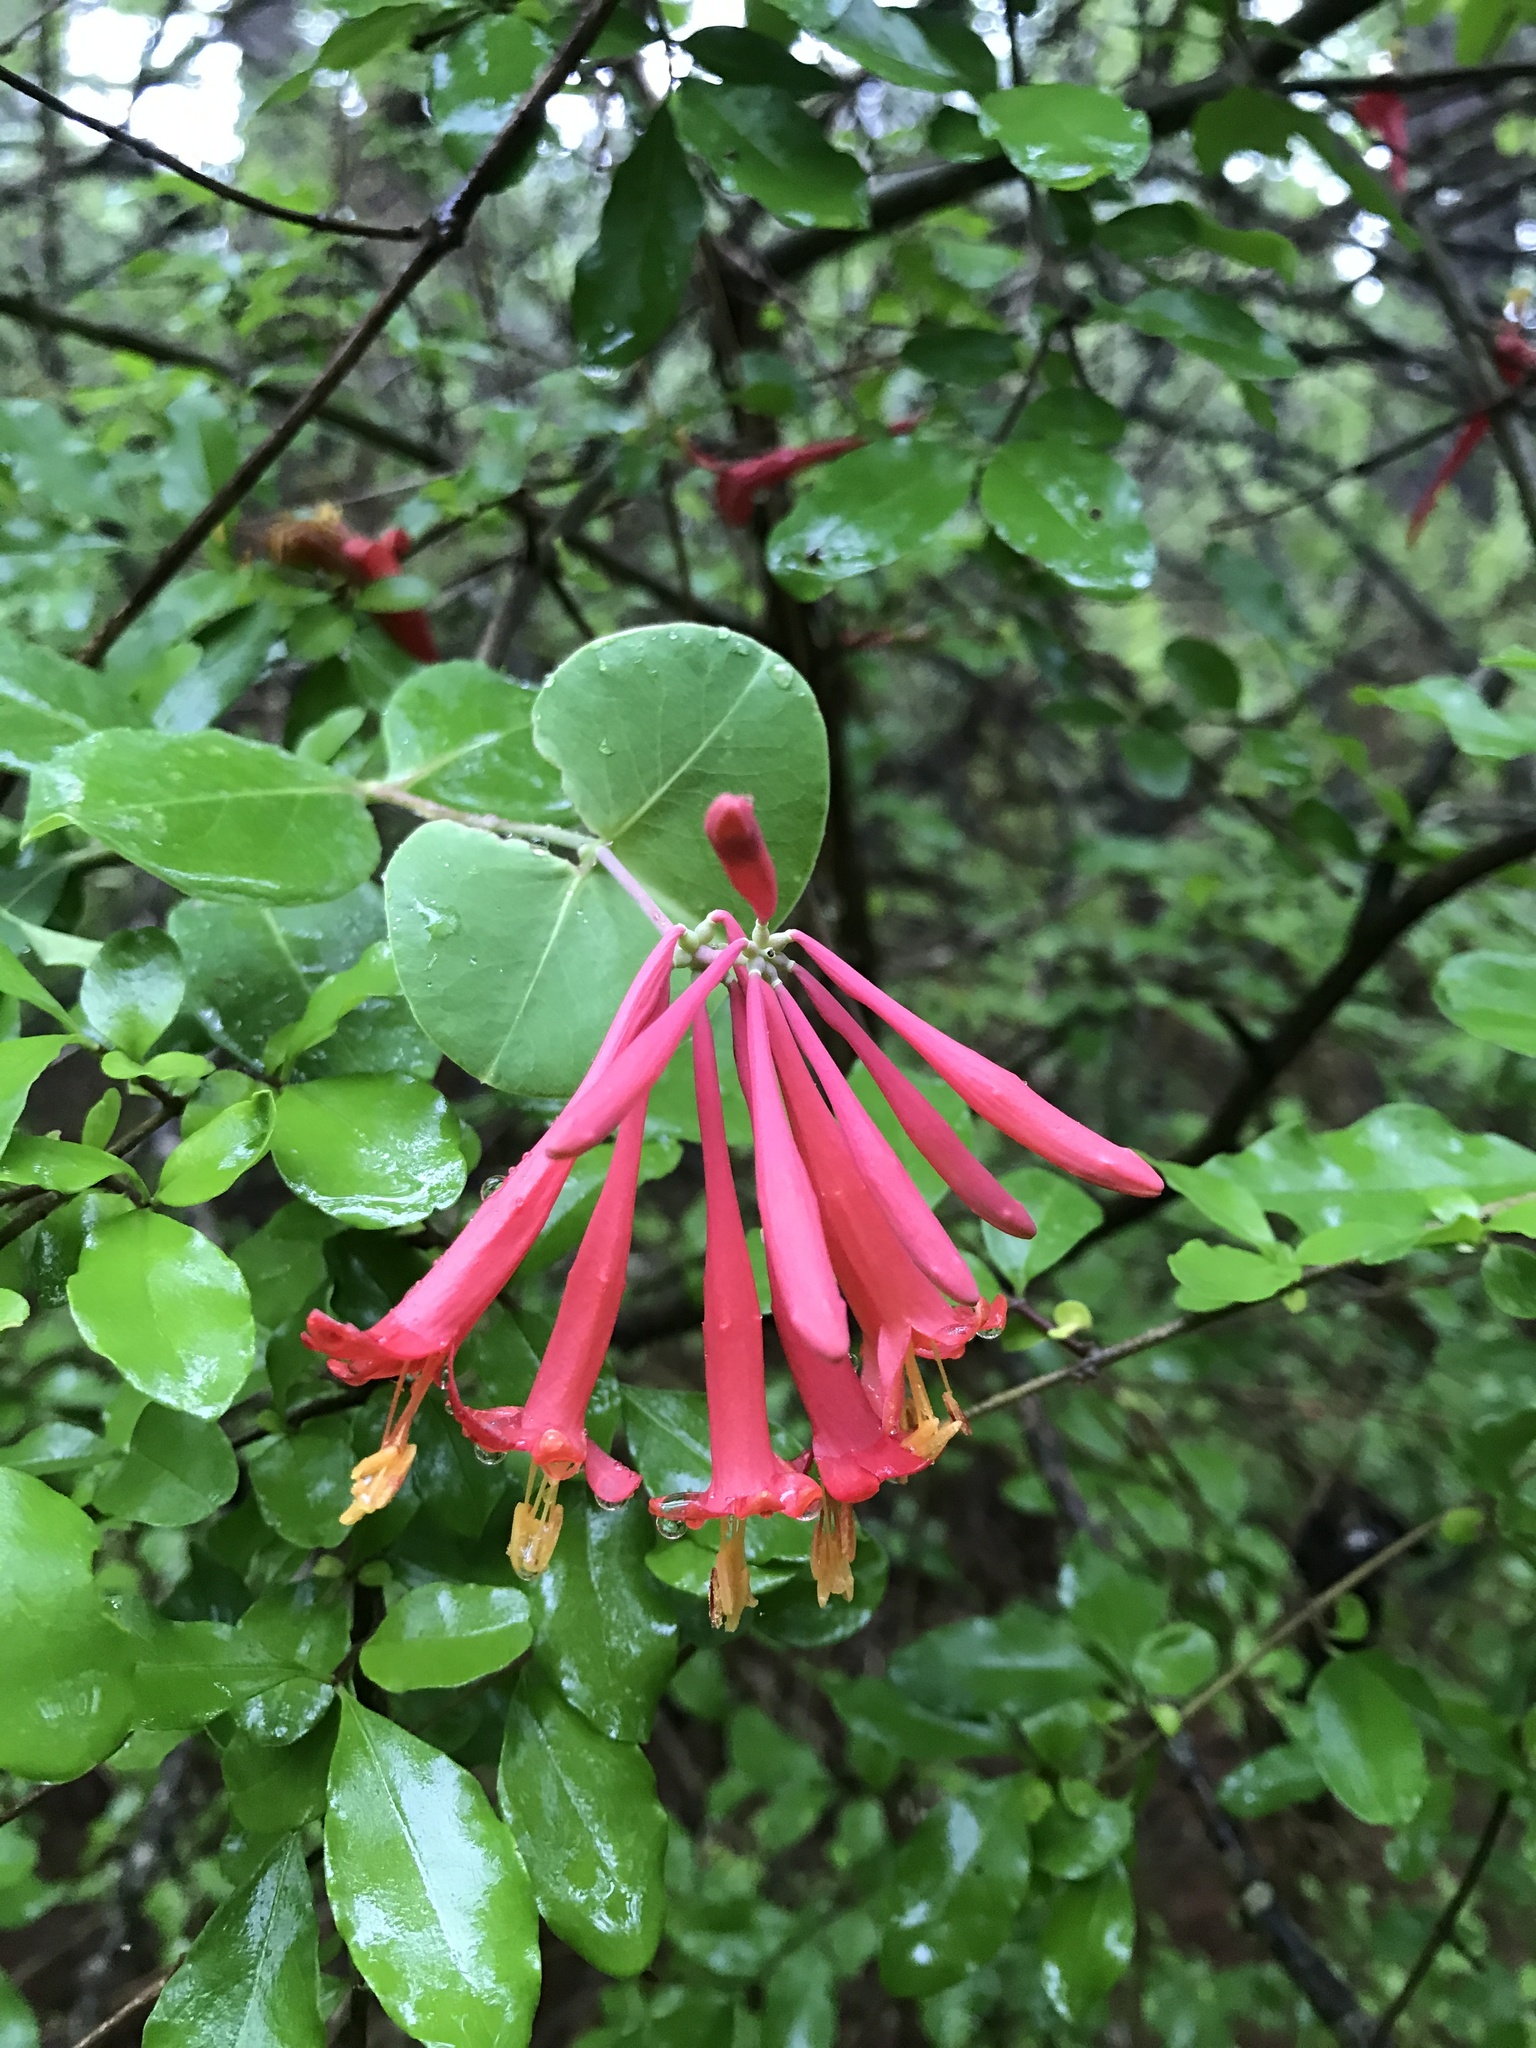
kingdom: Plantae
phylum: Tracheophyta
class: Magnoliopsida
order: Dipsacales
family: Caprifoliaceae
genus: Lonicera
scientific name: Lonicera sempervirens
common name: Coral honeysuckle
